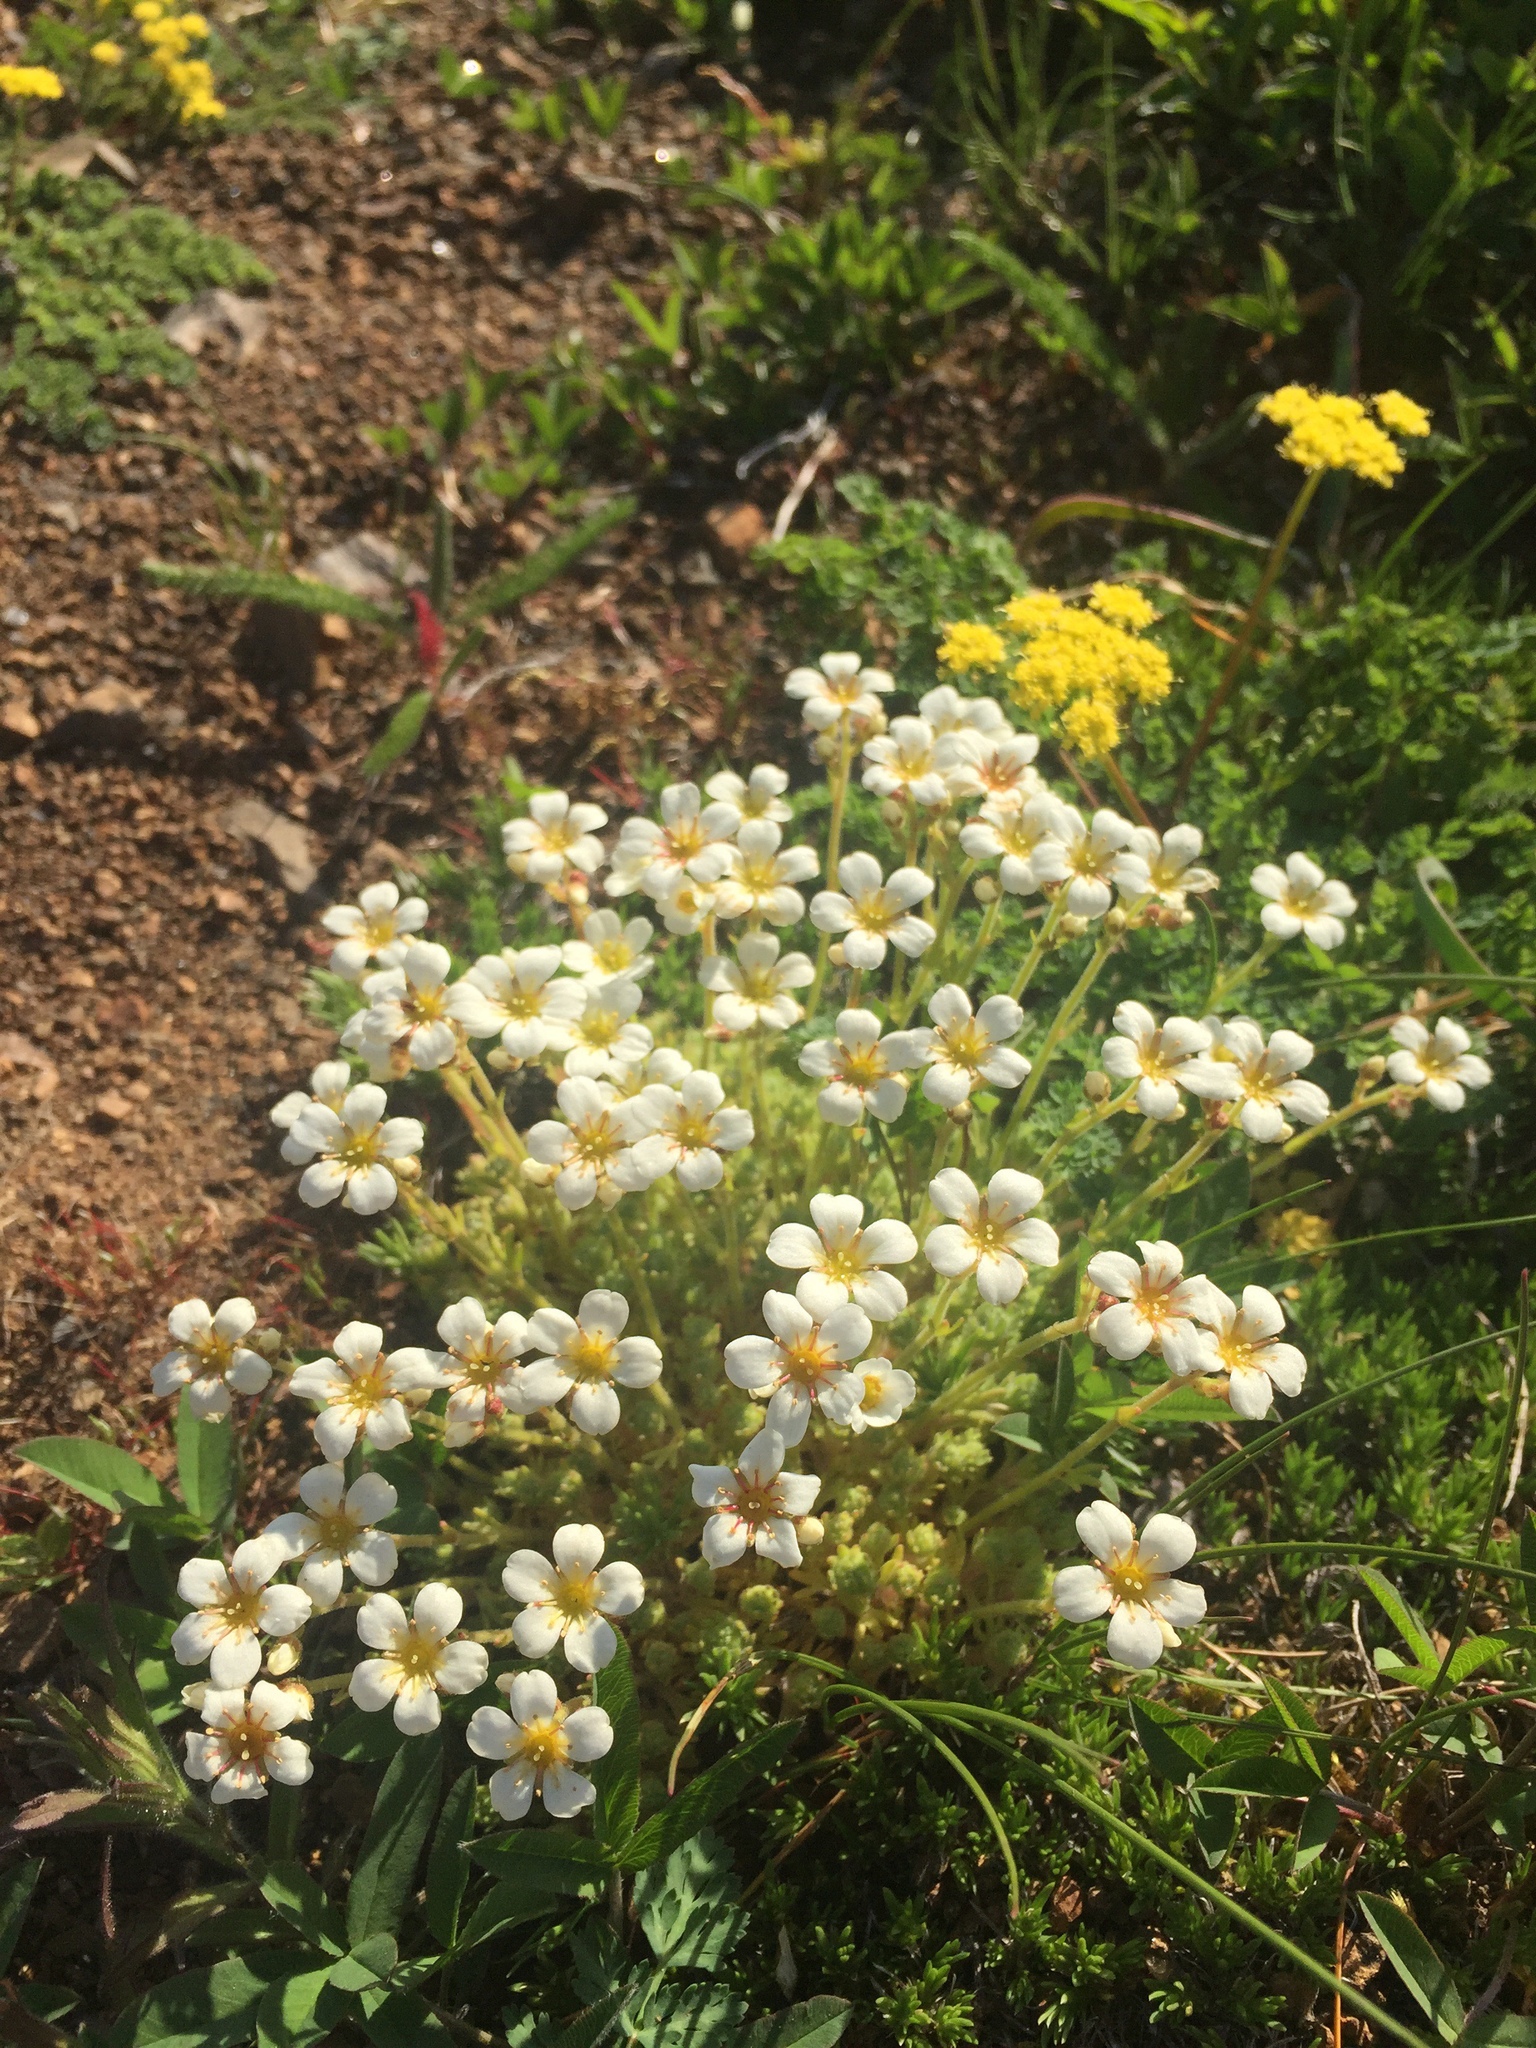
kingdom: Plantae
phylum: Tracheophyta
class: Magnoliopsida
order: Saxifragales
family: Saxifragaceae
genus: Saxifraga
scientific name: Saxifraga cespitosa
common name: Tufted saxifrage
